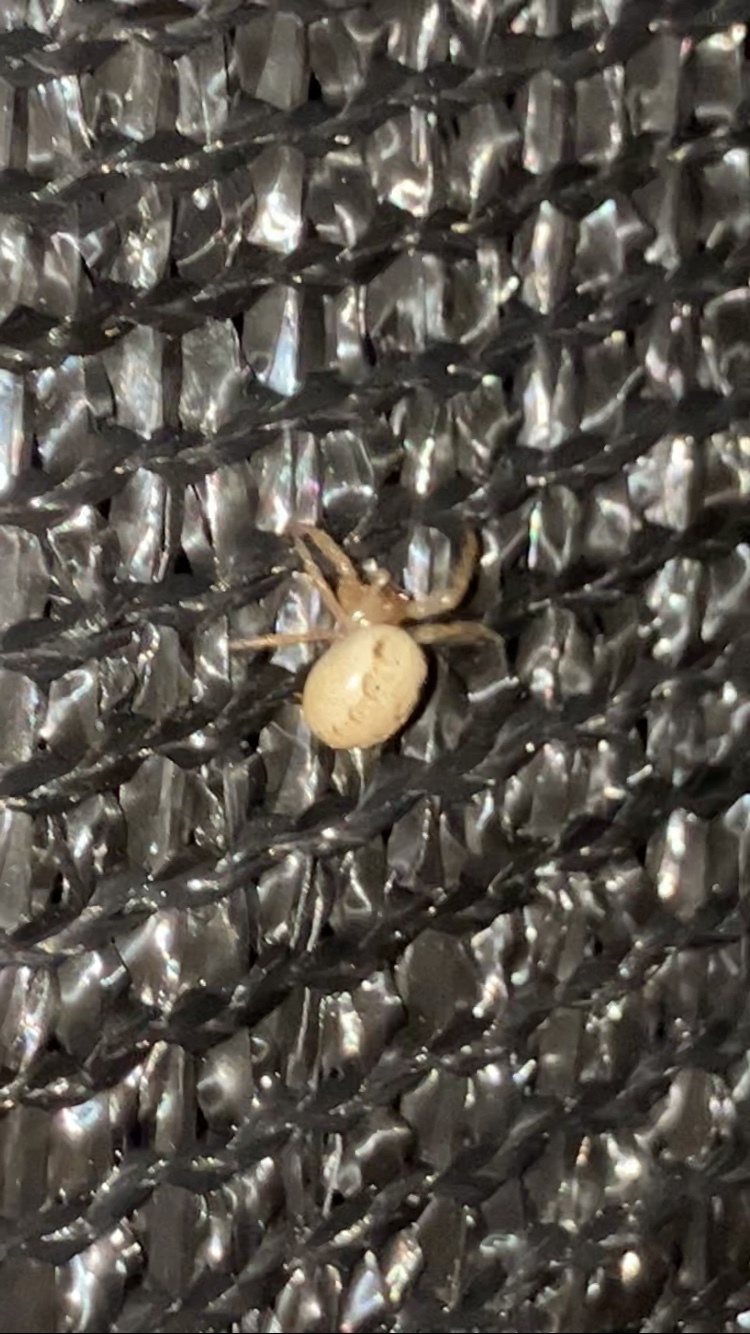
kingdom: Animalia
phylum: Arthropoda
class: Arachnida
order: Araneae
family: Araneidae
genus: Metazygia
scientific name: Metazygia wittfeldae
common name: Orb weavers
